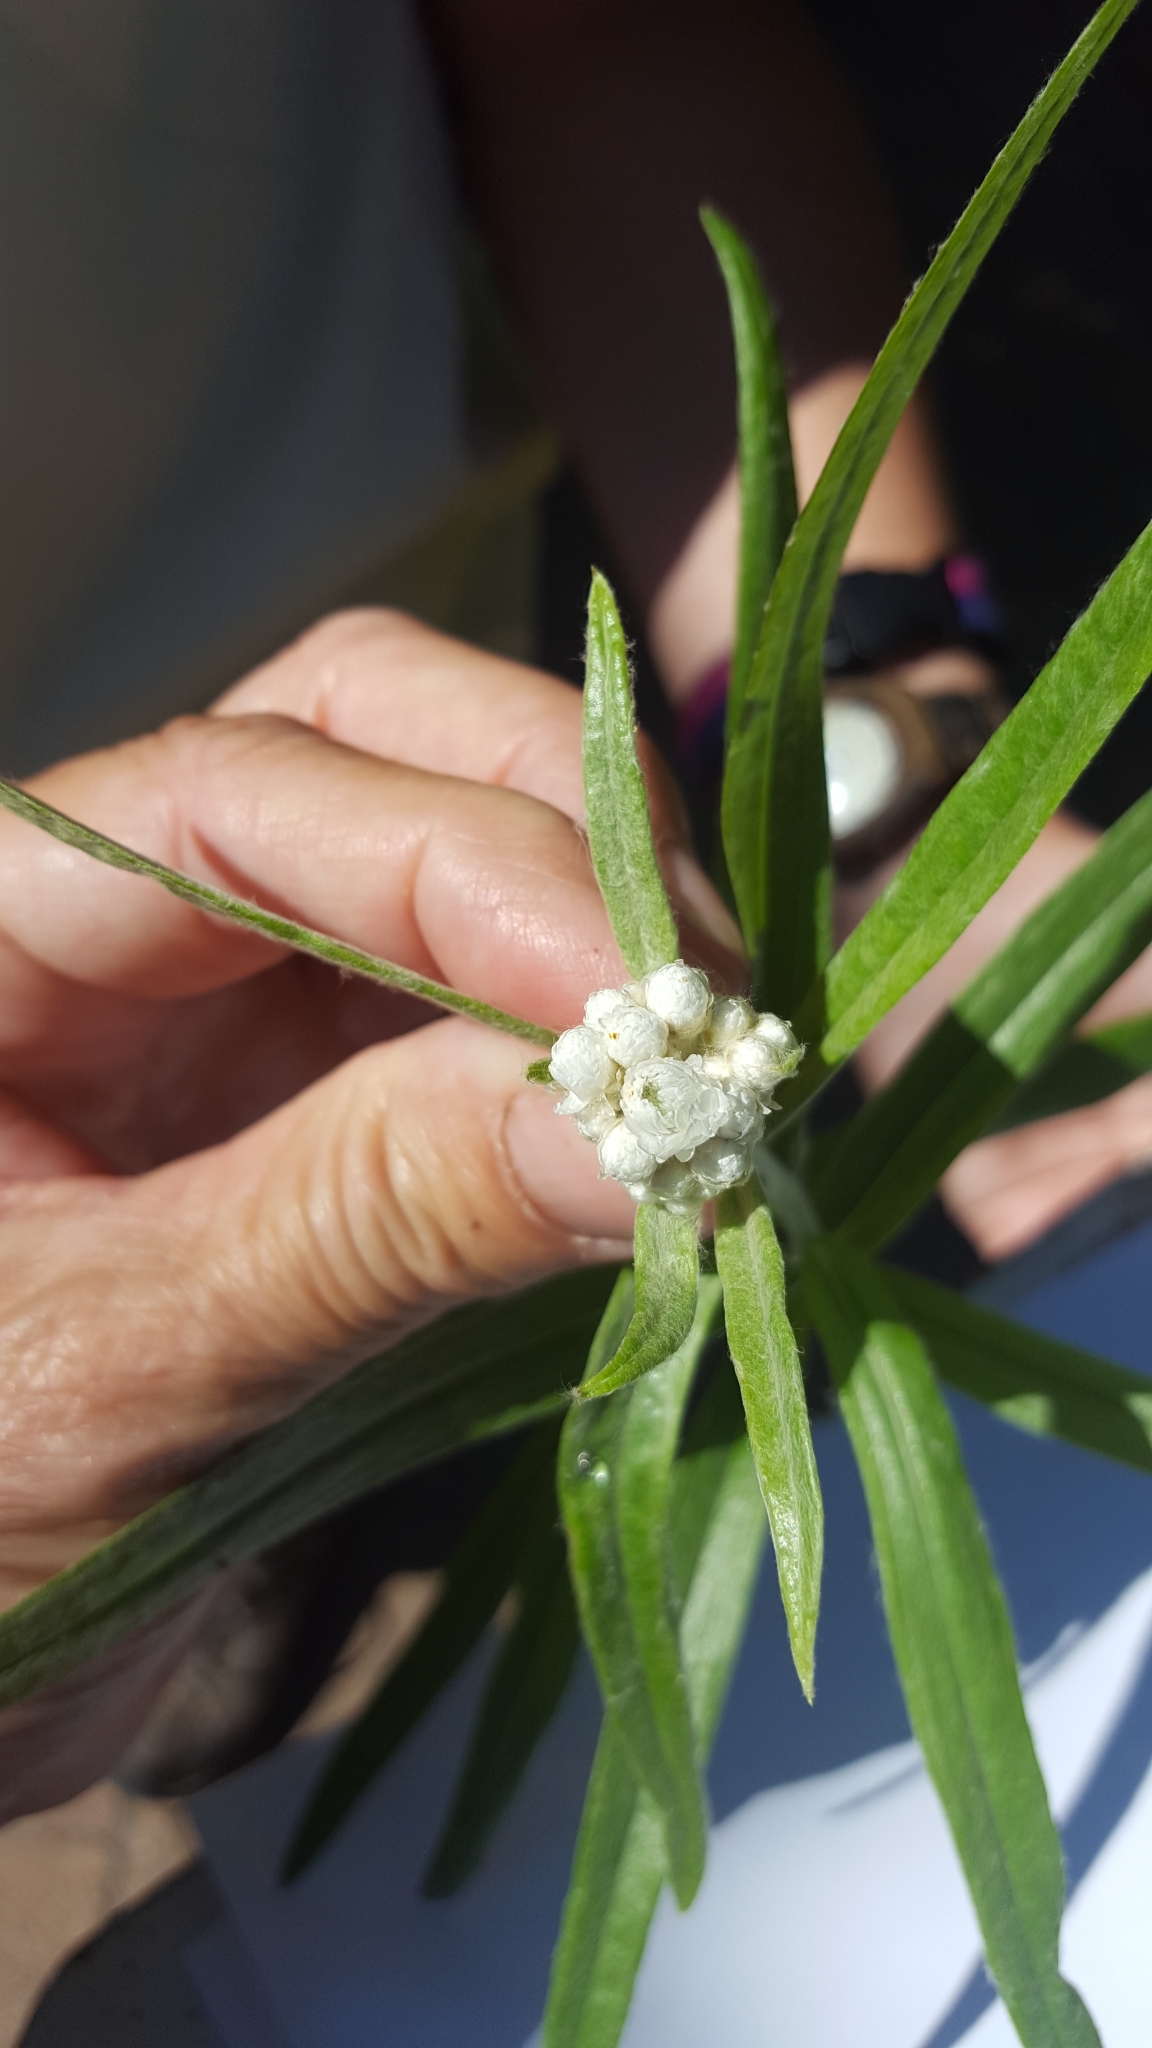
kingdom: Plantae
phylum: Tracheophyta
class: Magnoliopsida
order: Asterales
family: Asteraceae
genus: Anaphalis
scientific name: Anaphalis margaritacea
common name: Pearly everlasting
